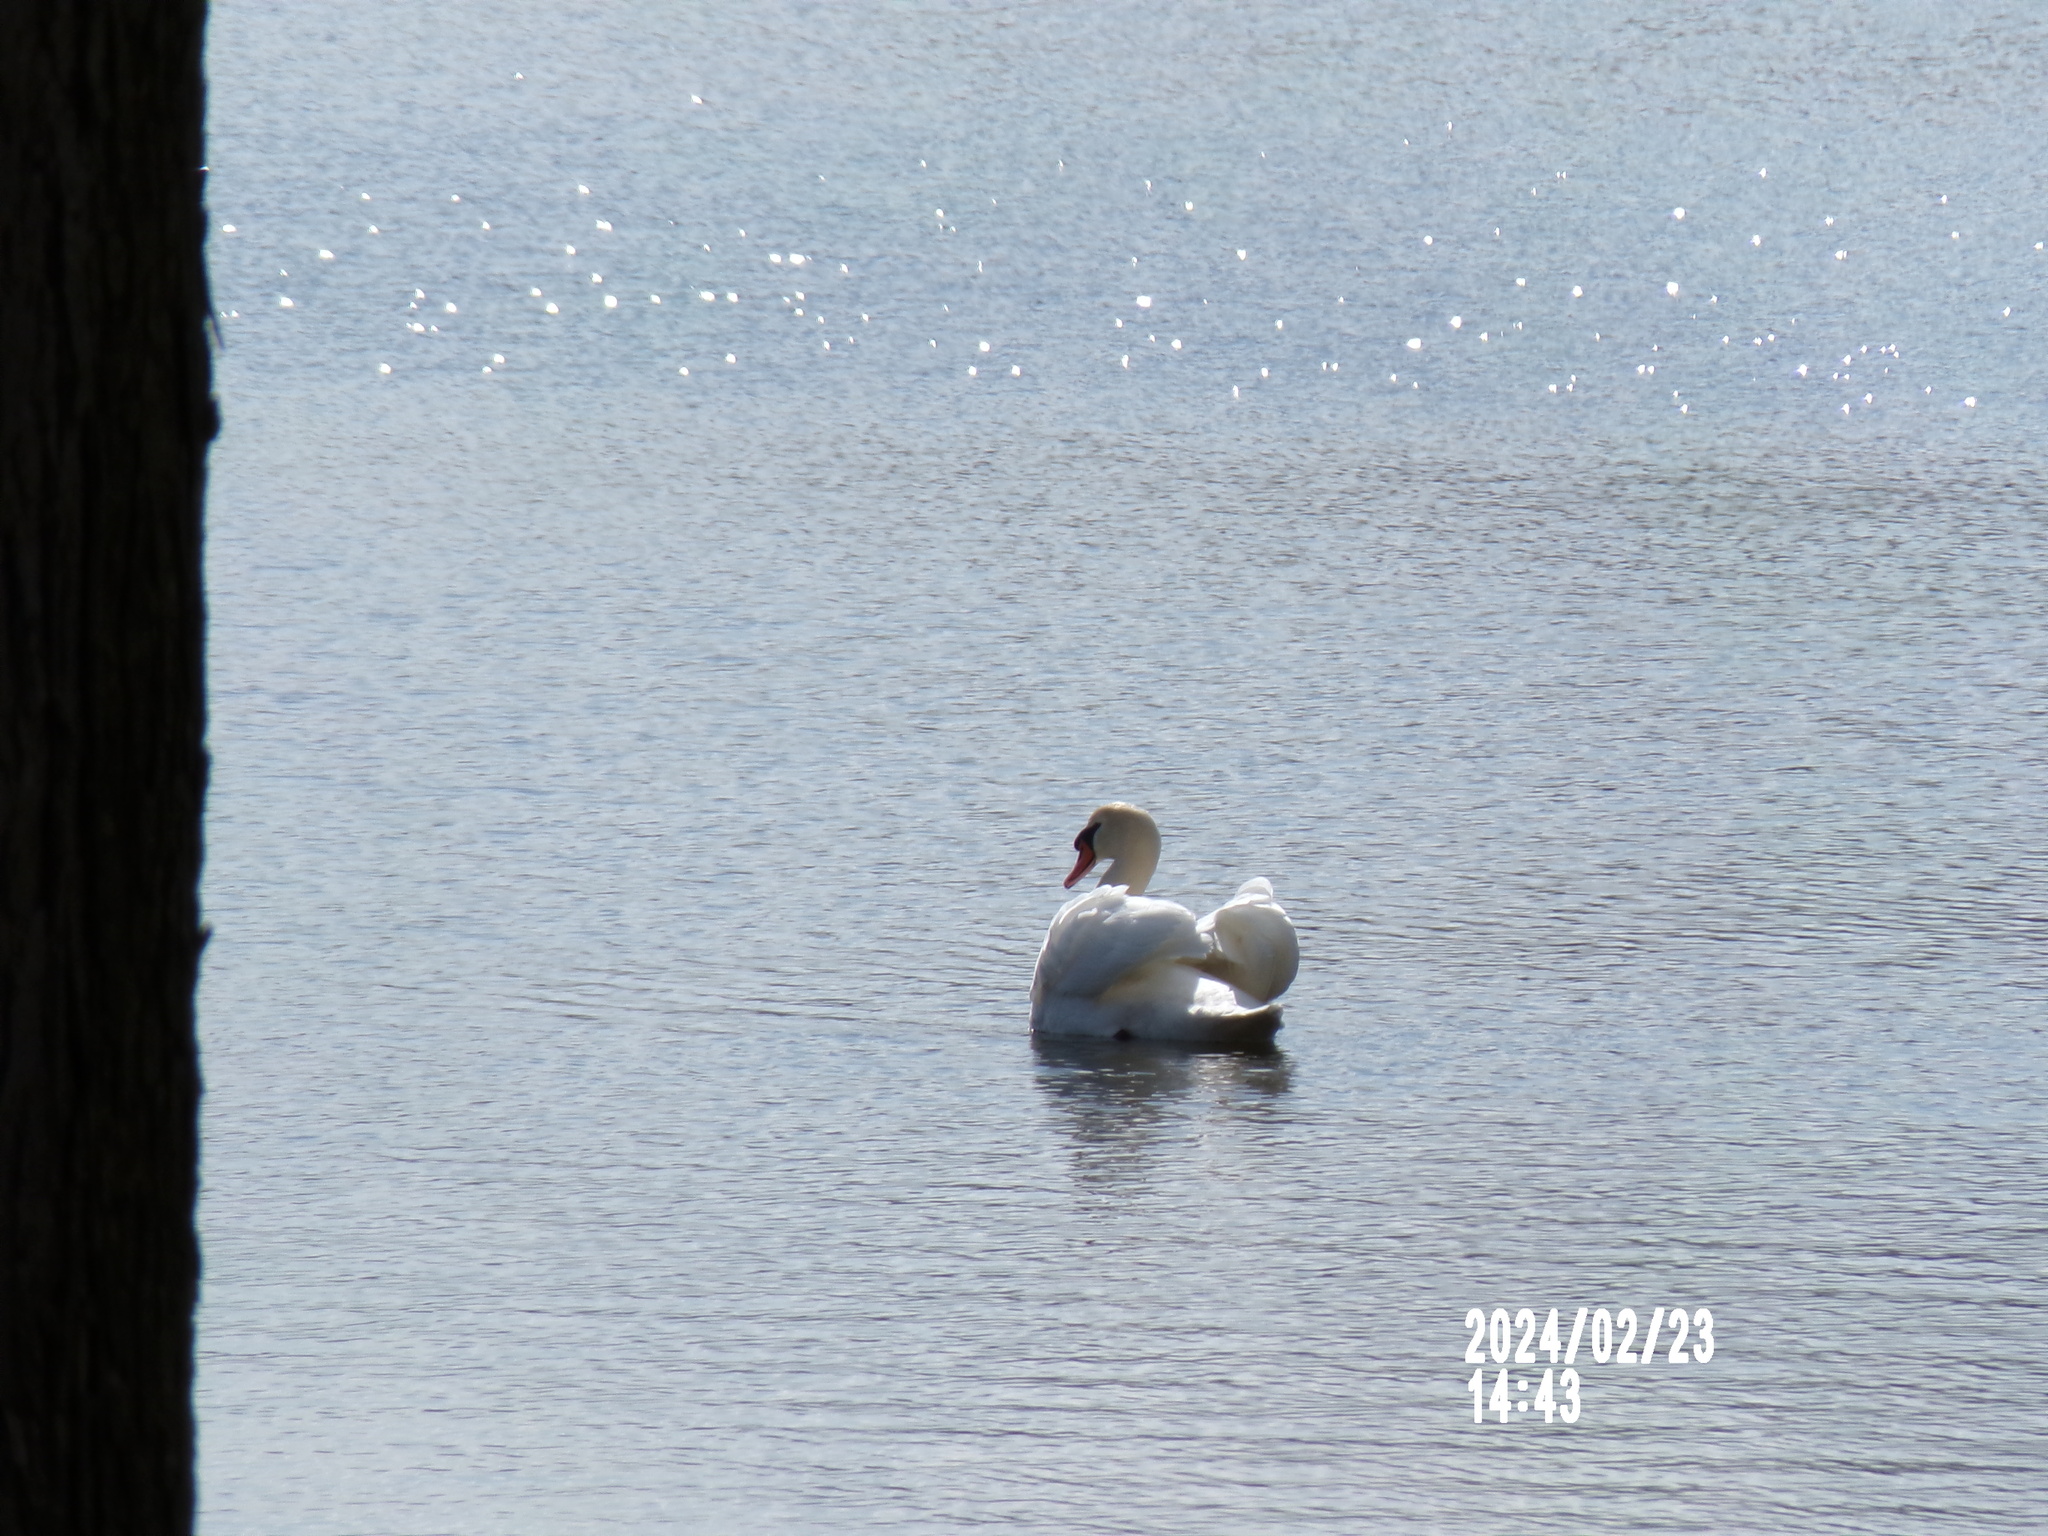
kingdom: Animalia
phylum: Chordata
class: Aves
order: Anseriformes
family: Anatidae
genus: Cygnus
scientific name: Cygnus olor
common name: Mute swan
